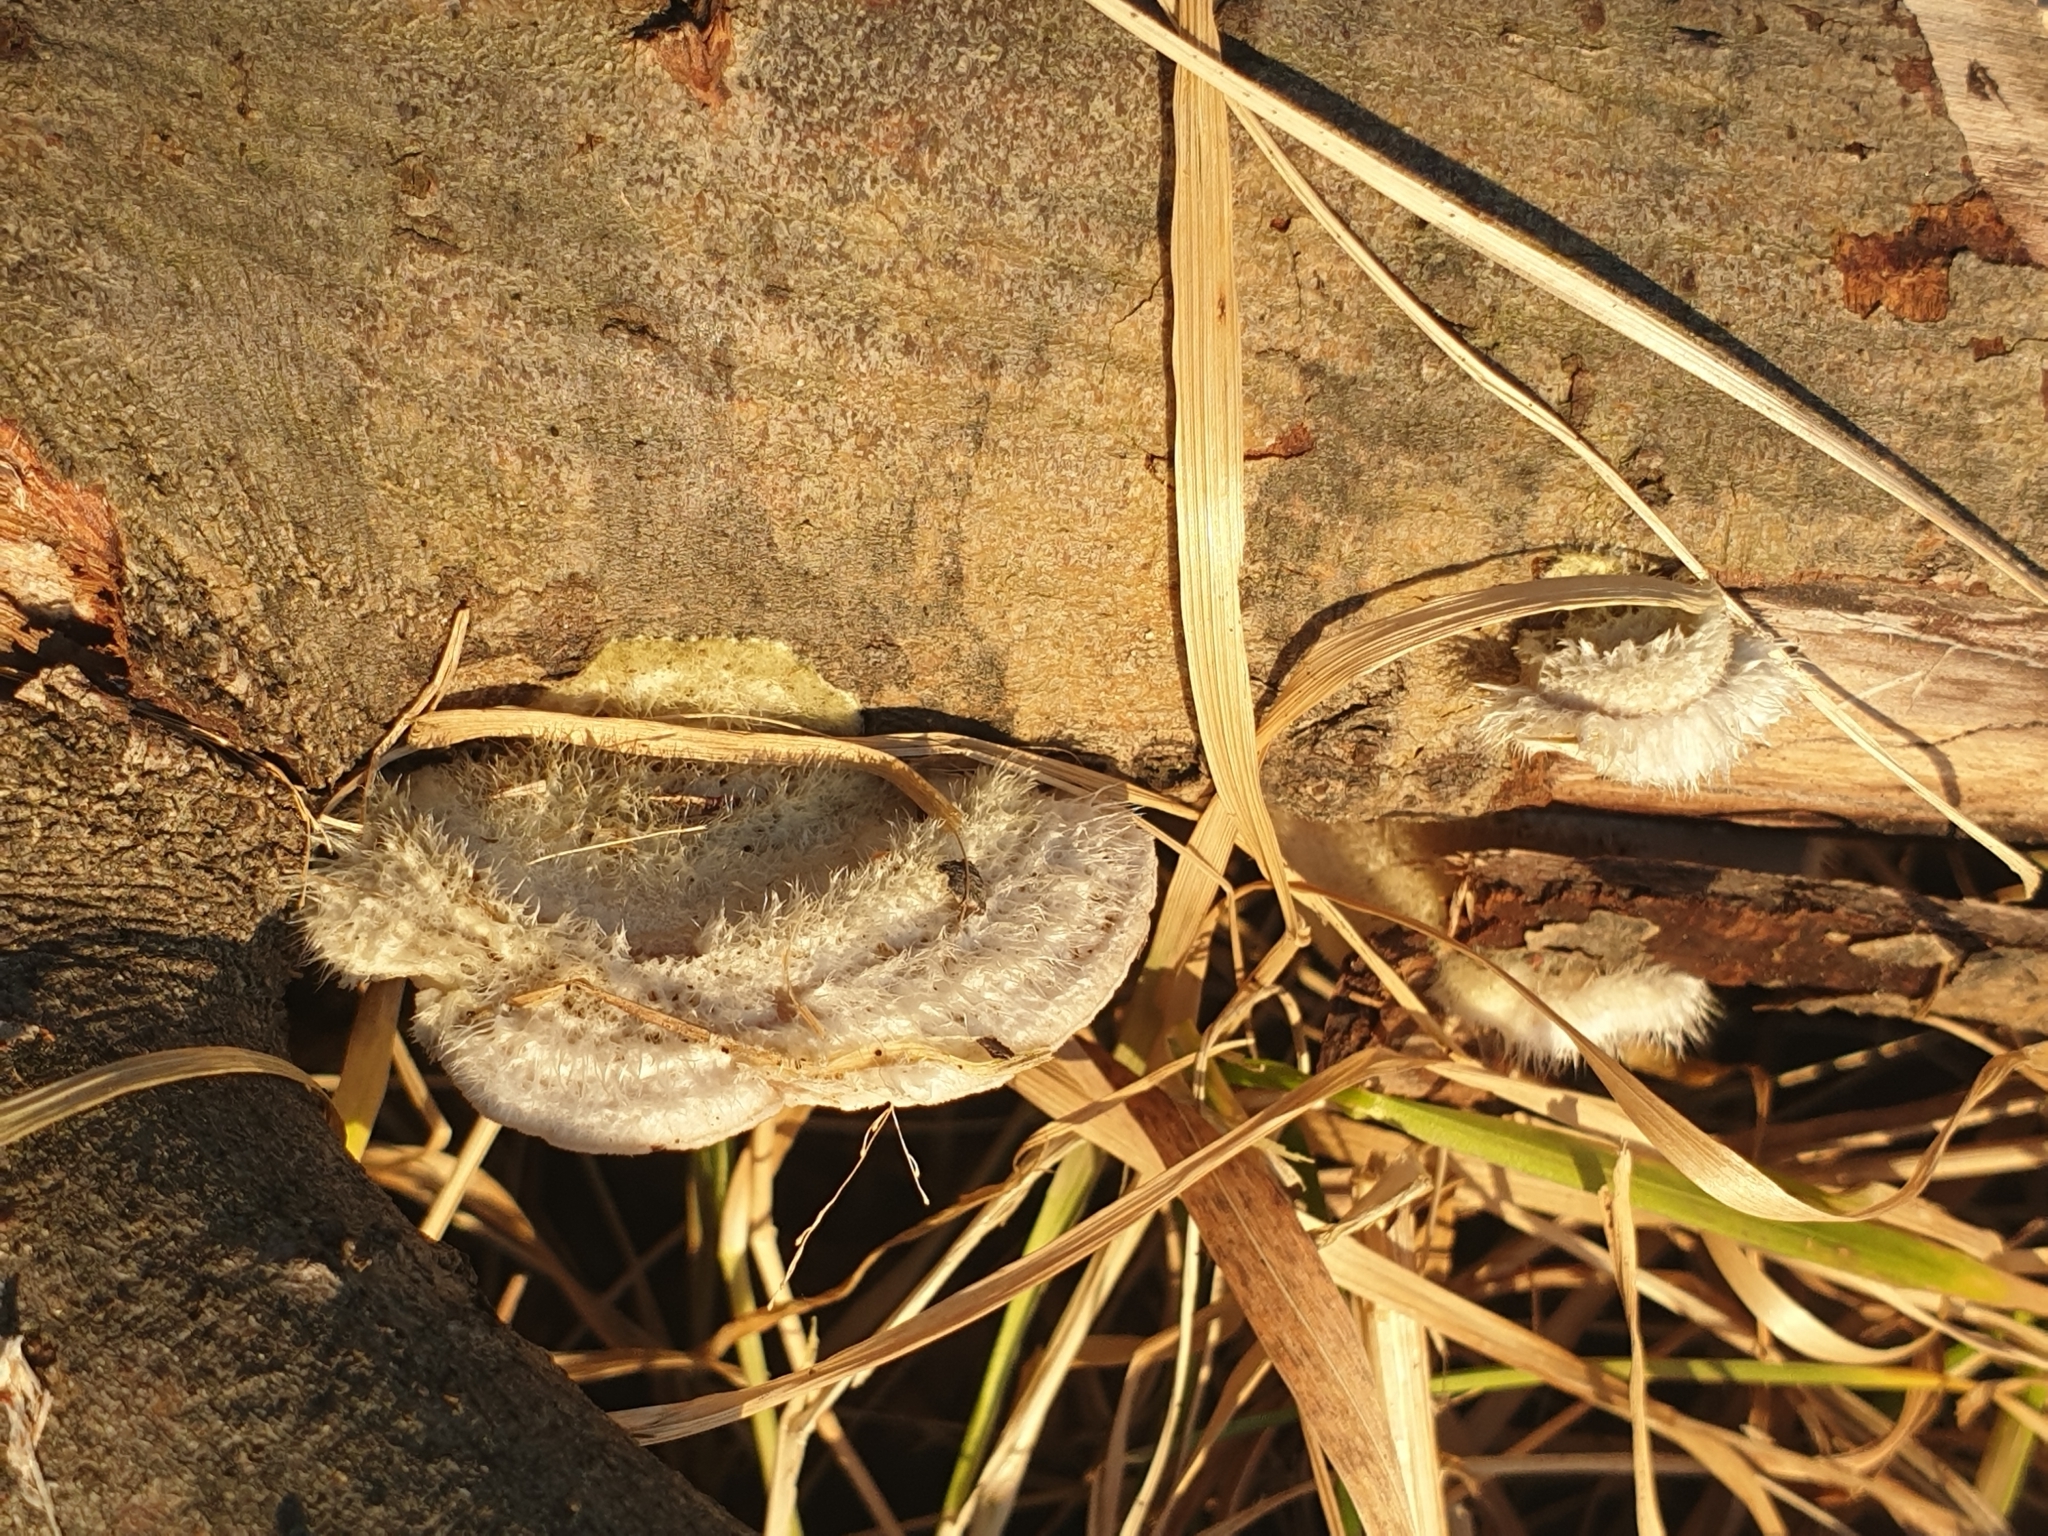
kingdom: Fungi
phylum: Basidiomycota
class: Agaricomycetes
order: Polyporales
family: Polyporaceae
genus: Trametes
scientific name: Trametes hirsuta
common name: Hairy bracket
